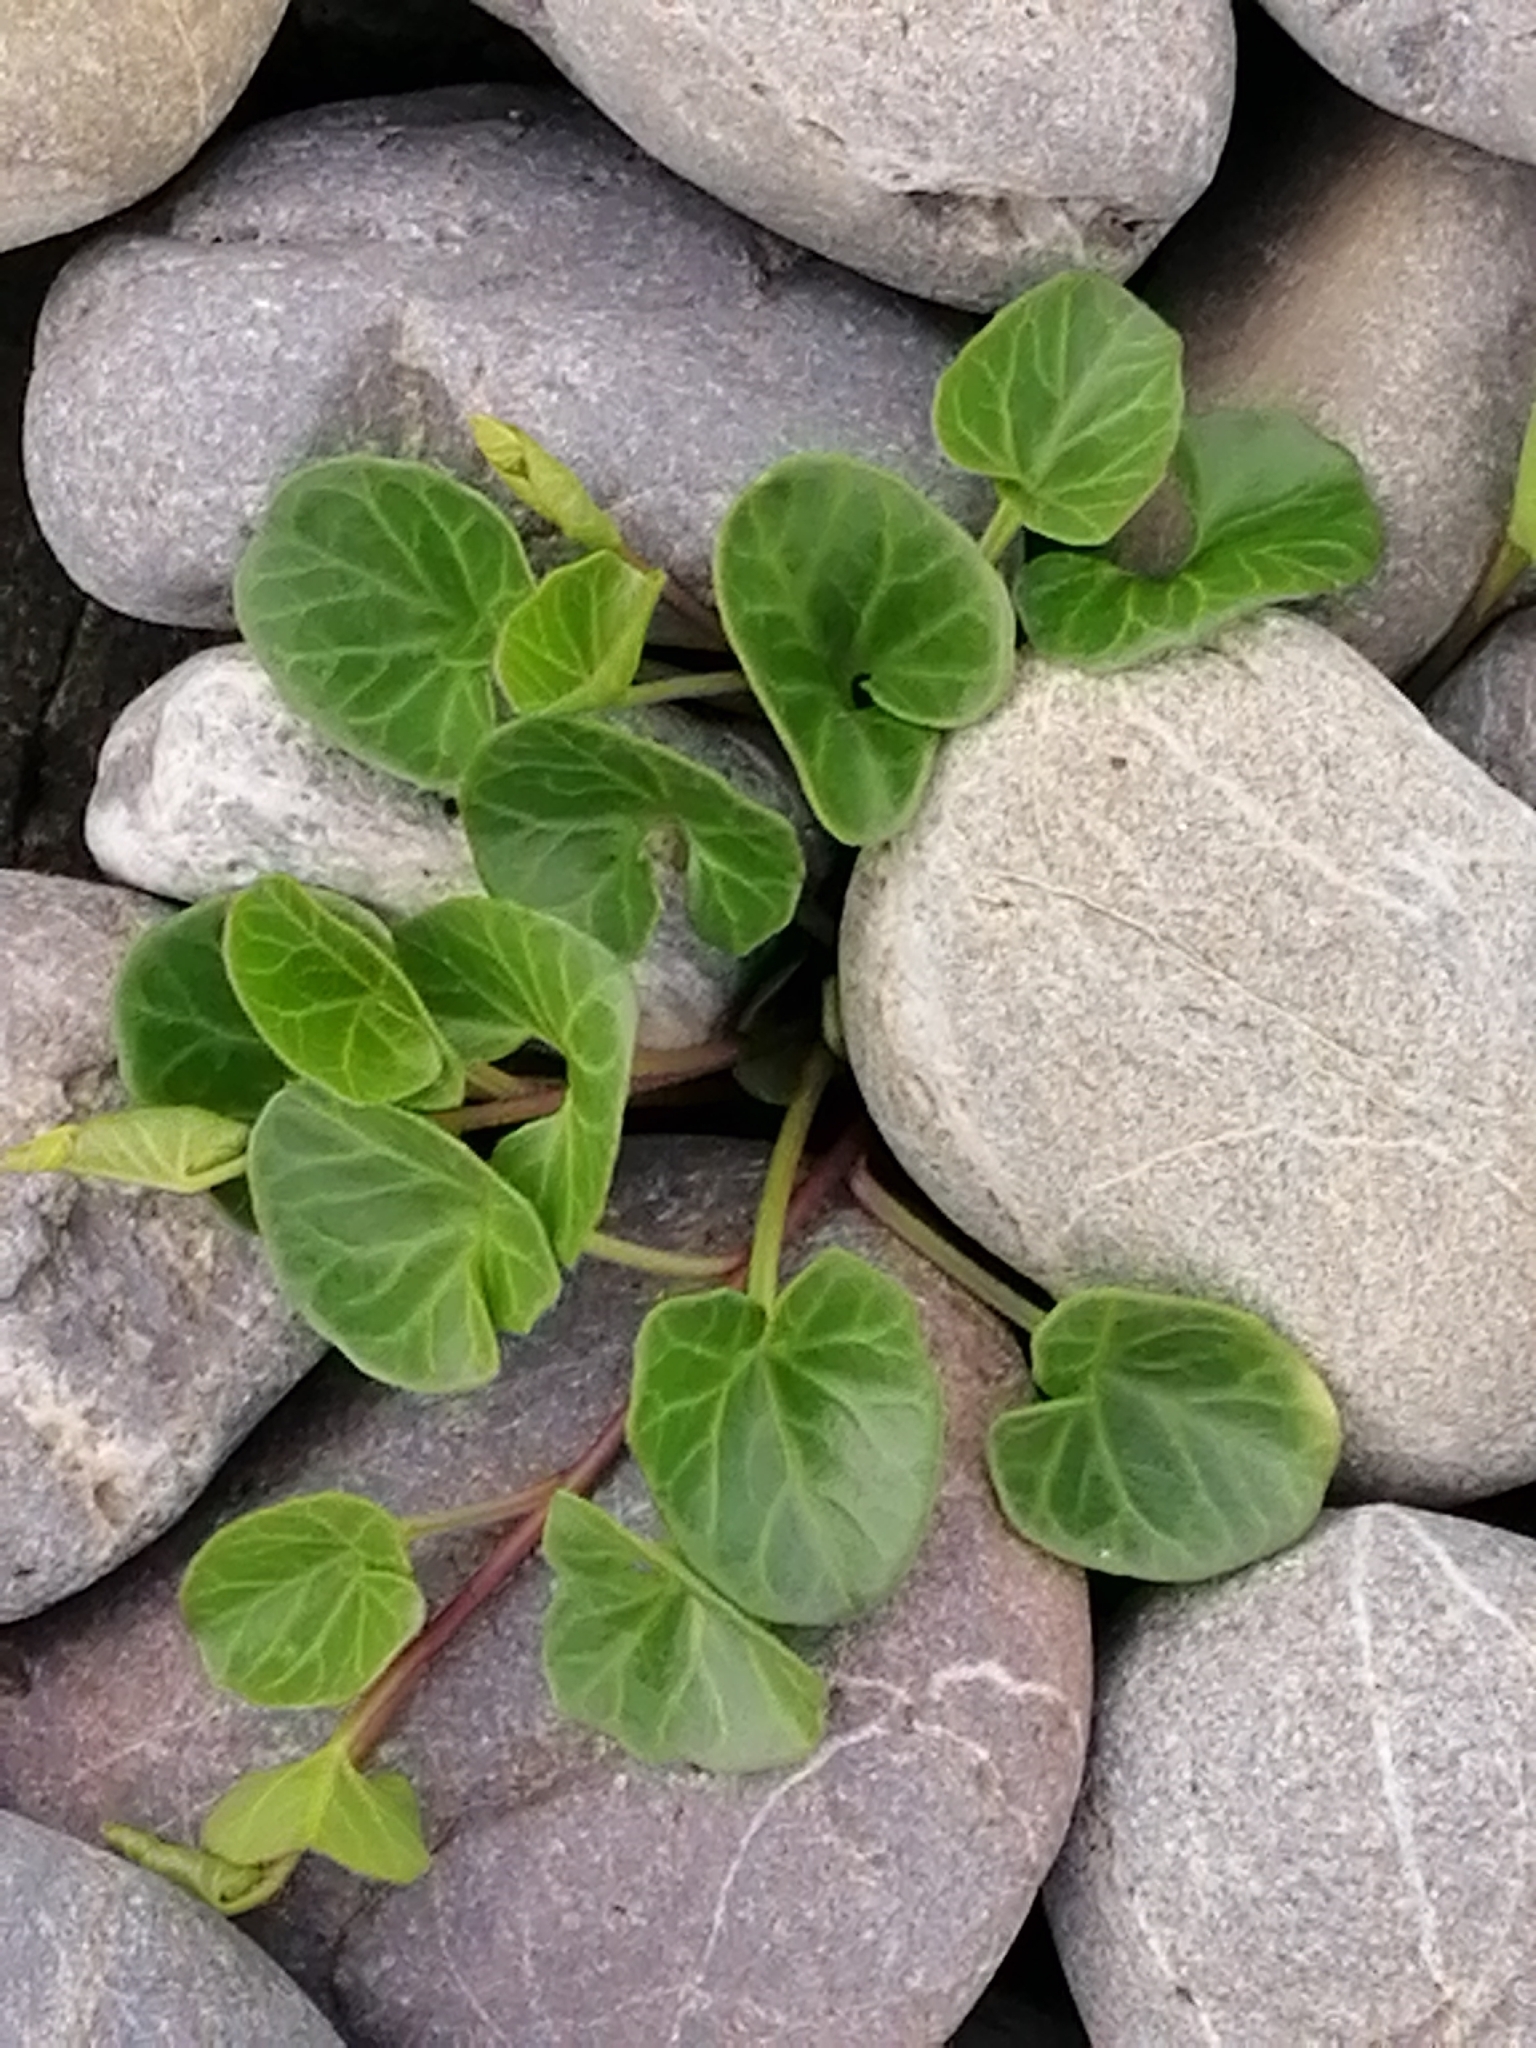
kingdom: Plantae
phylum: Tracheophyta
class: Magnoliopsida
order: Solanales
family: Convolvulaceae
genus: Calystegia
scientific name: Calystegia soldanella
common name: Sea bindweed
